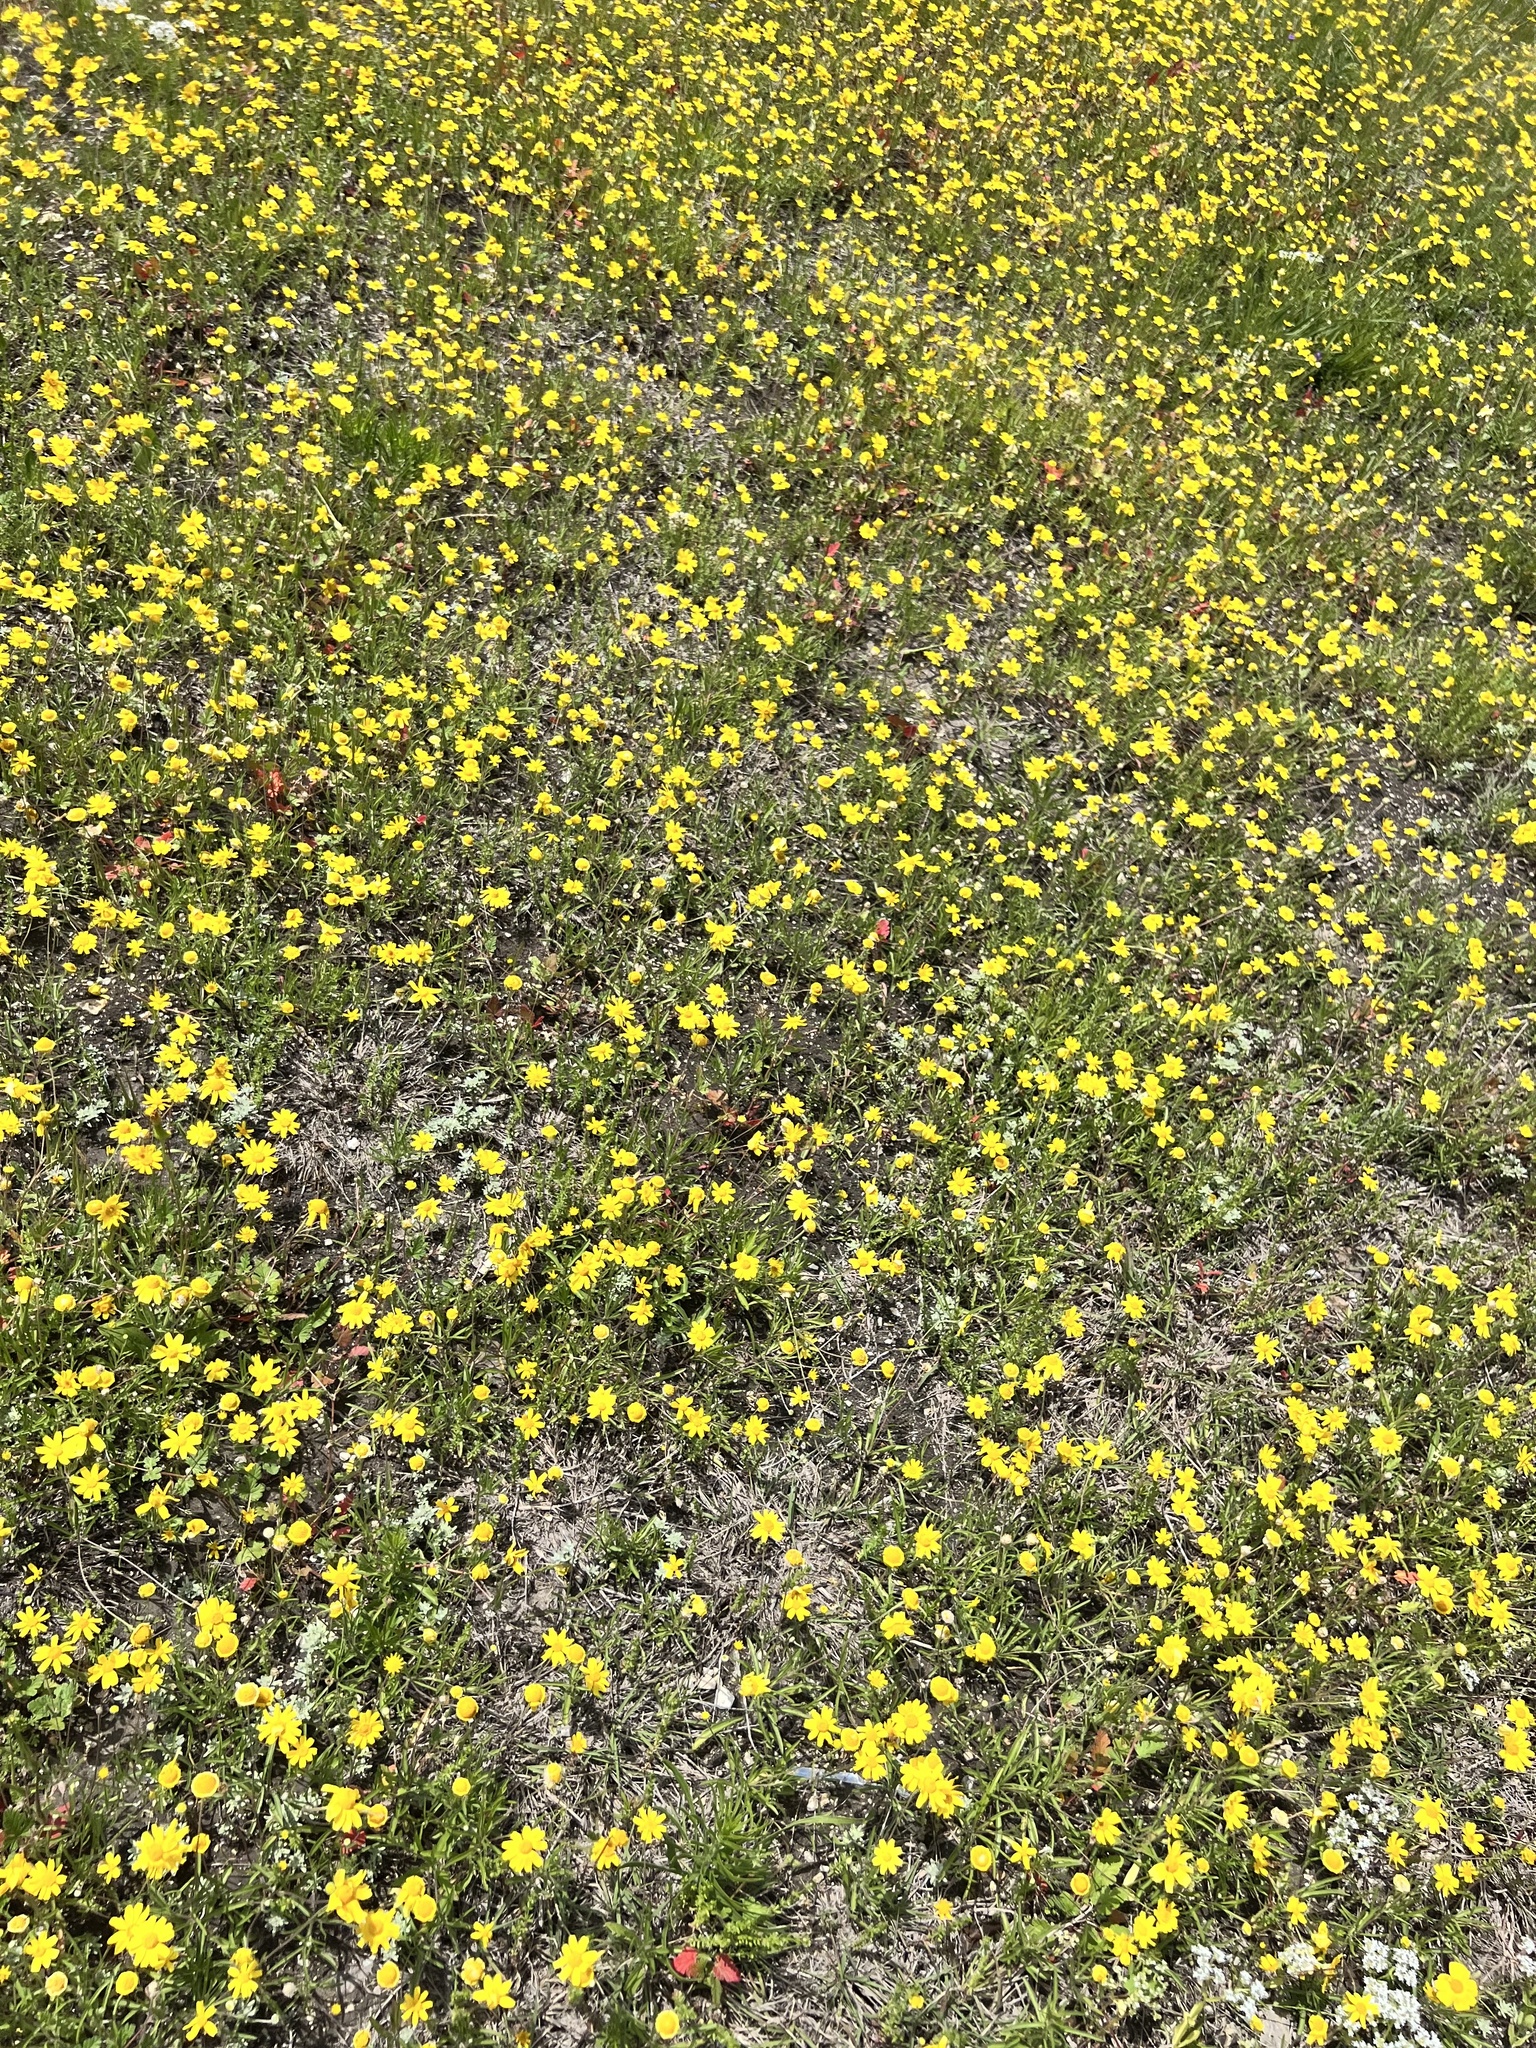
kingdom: Plantae
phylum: Tracheophyta
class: Magnoliopsida
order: Zygophyllales
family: Krameriaceae
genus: Krameria
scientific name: Krameria lanceolata
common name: Ratany
